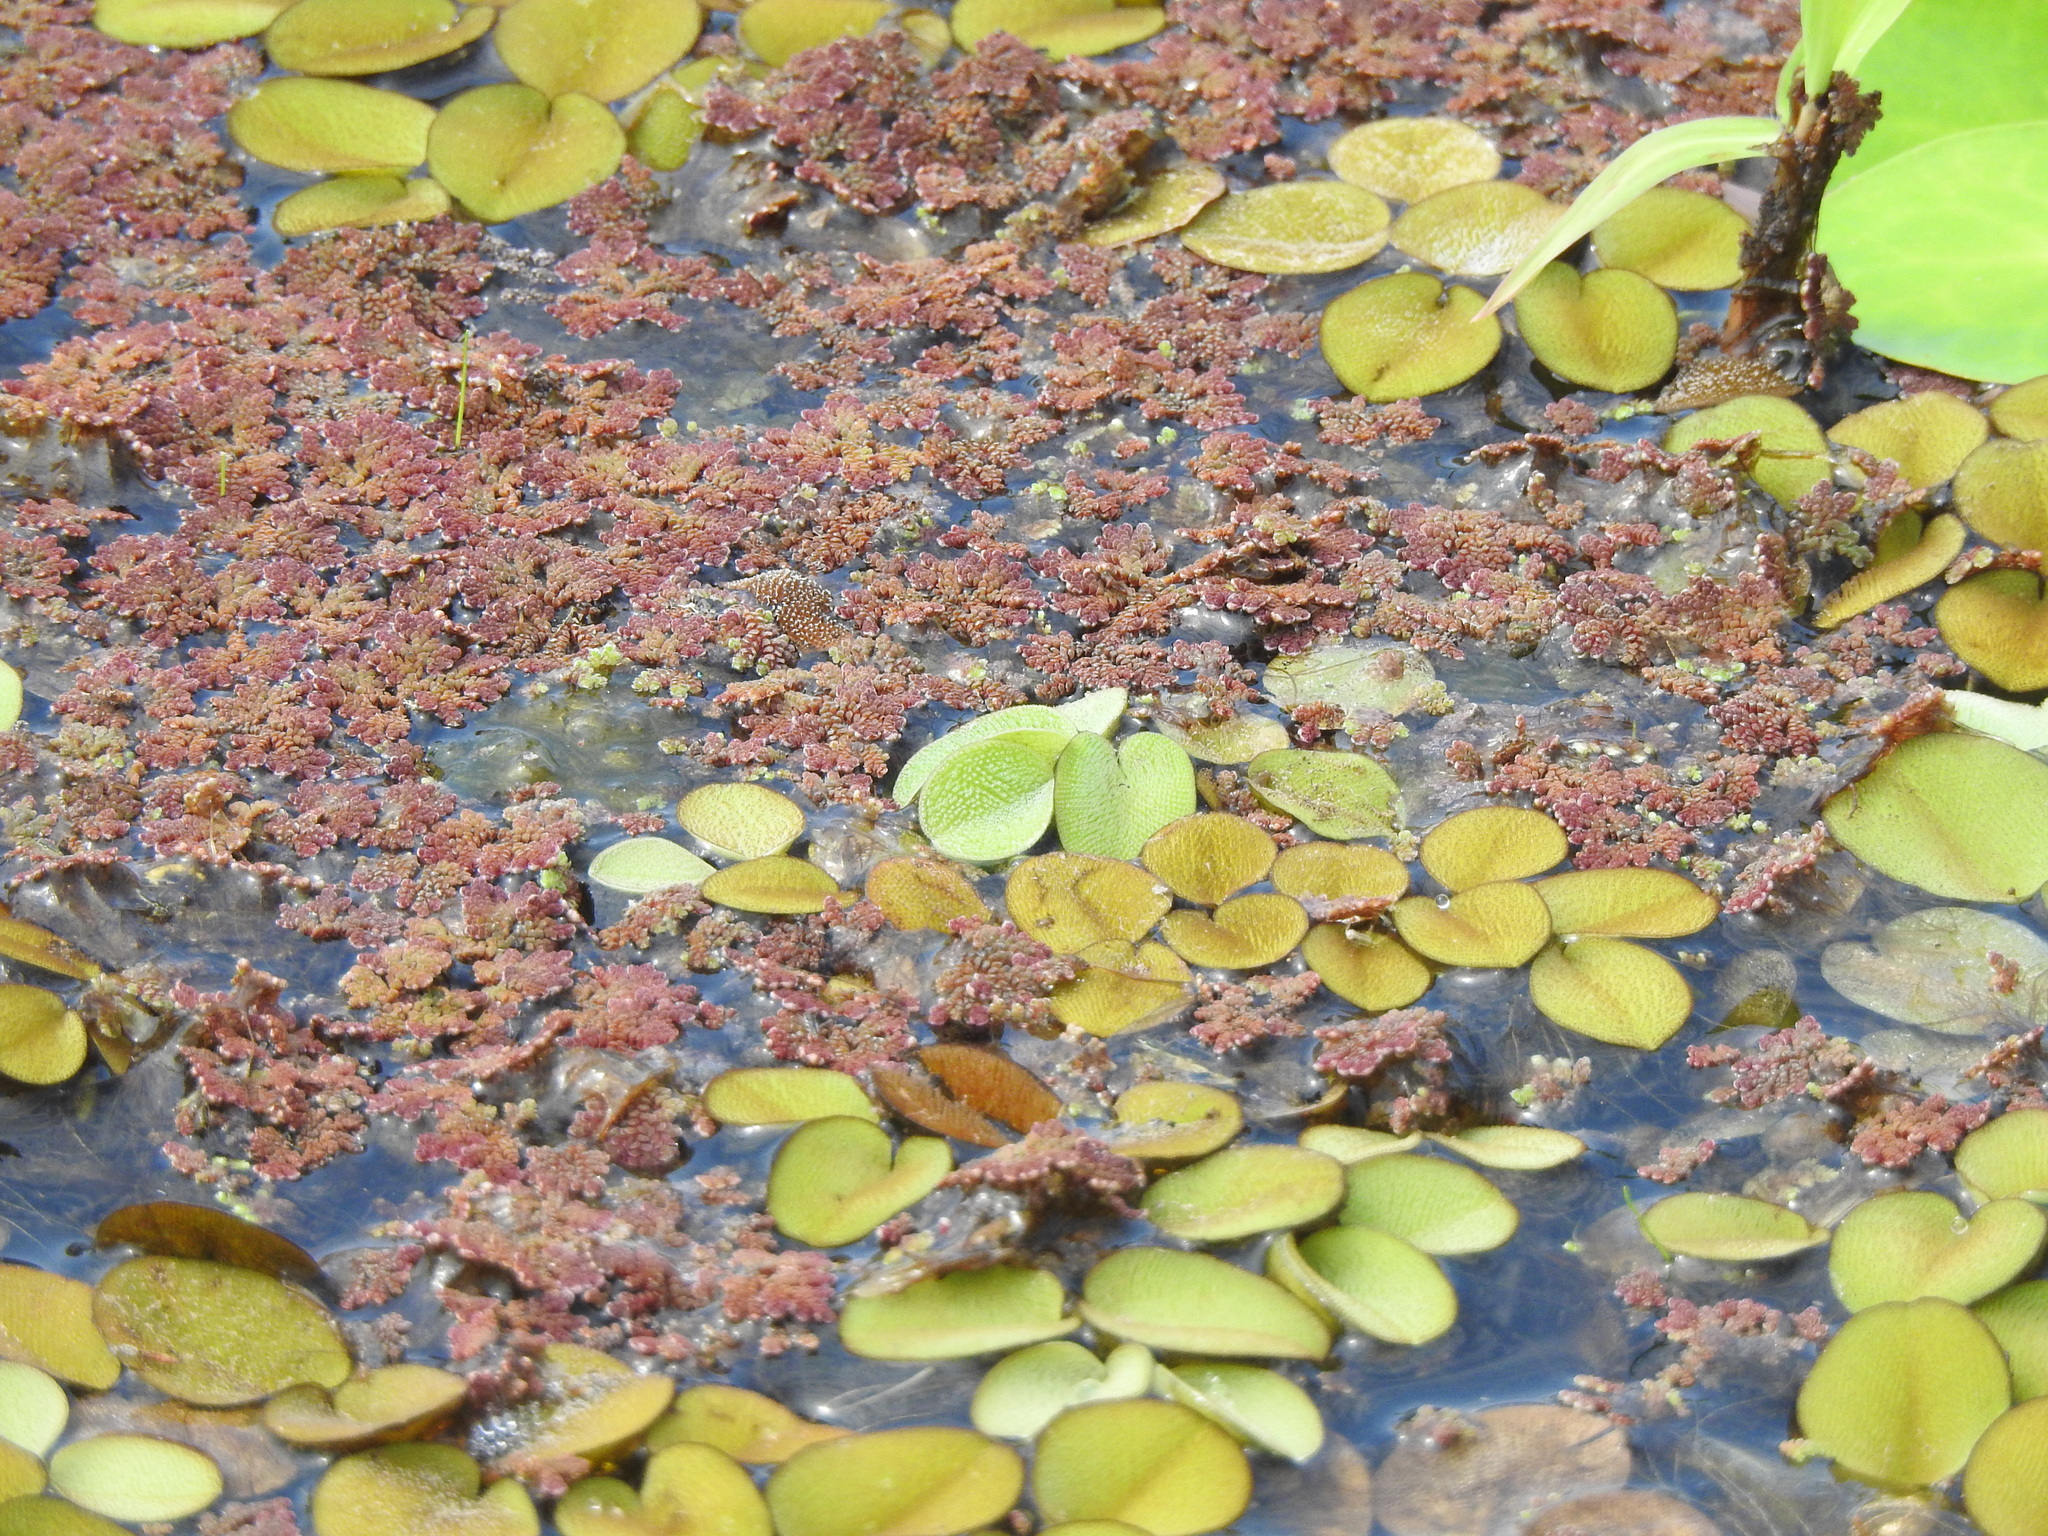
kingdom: Plantae
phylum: Tracheophyta
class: Polypodiopsida
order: Salviniales
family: Salviniaceae
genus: Salvinia
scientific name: Salvinia minima
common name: Water spangles
